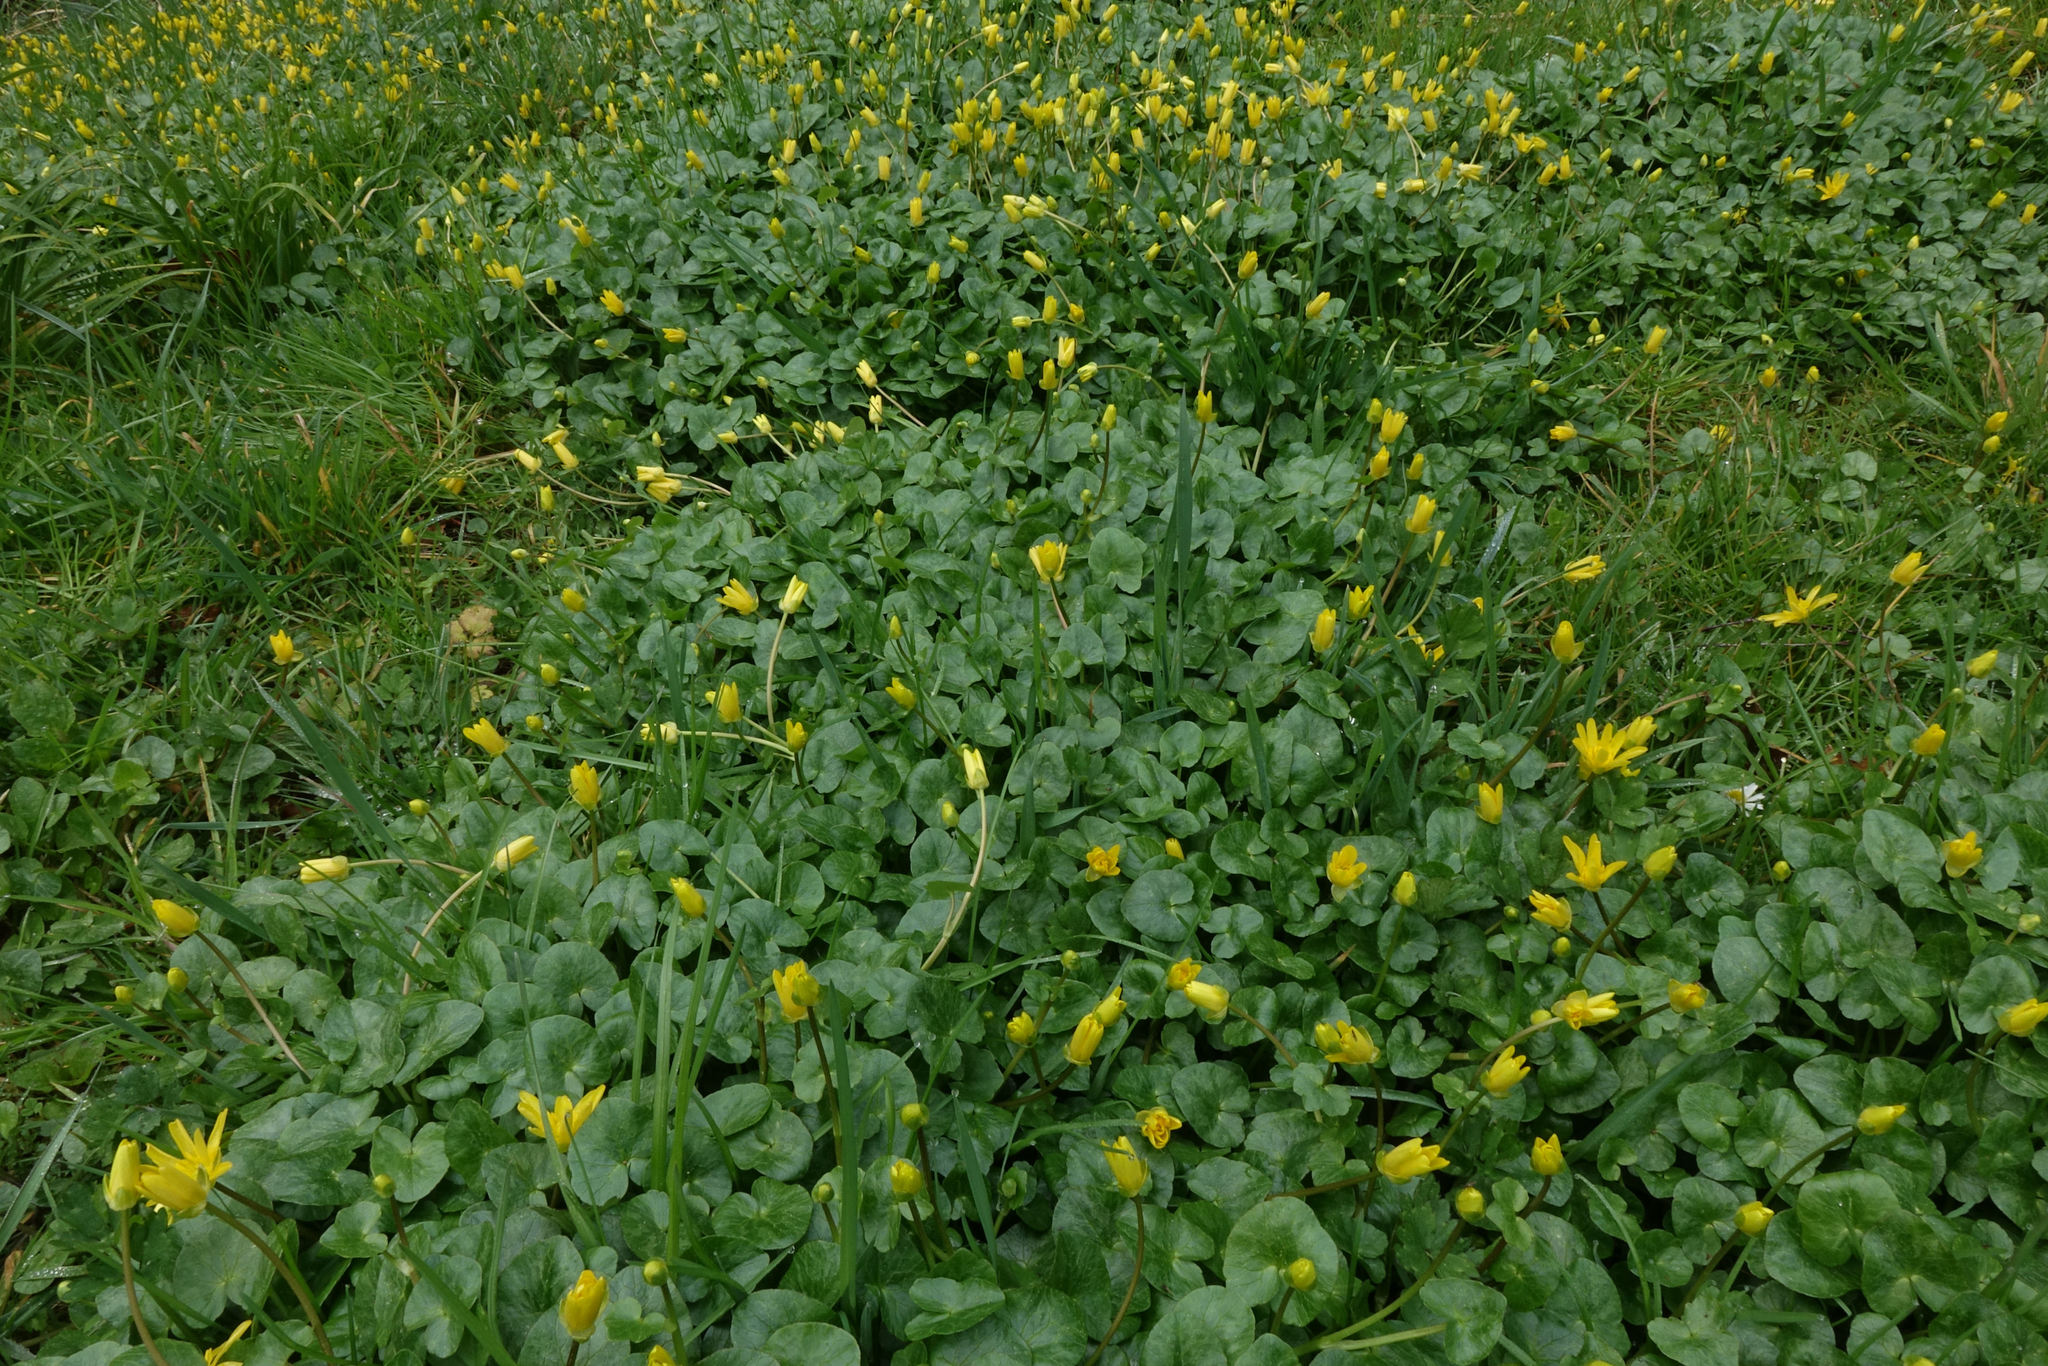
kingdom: Plantae
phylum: Tracheophyta
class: Magnoliopsida
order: Ranunculales
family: Ranunculaceae
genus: Ficaria
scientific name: Ficaria grandiflora
